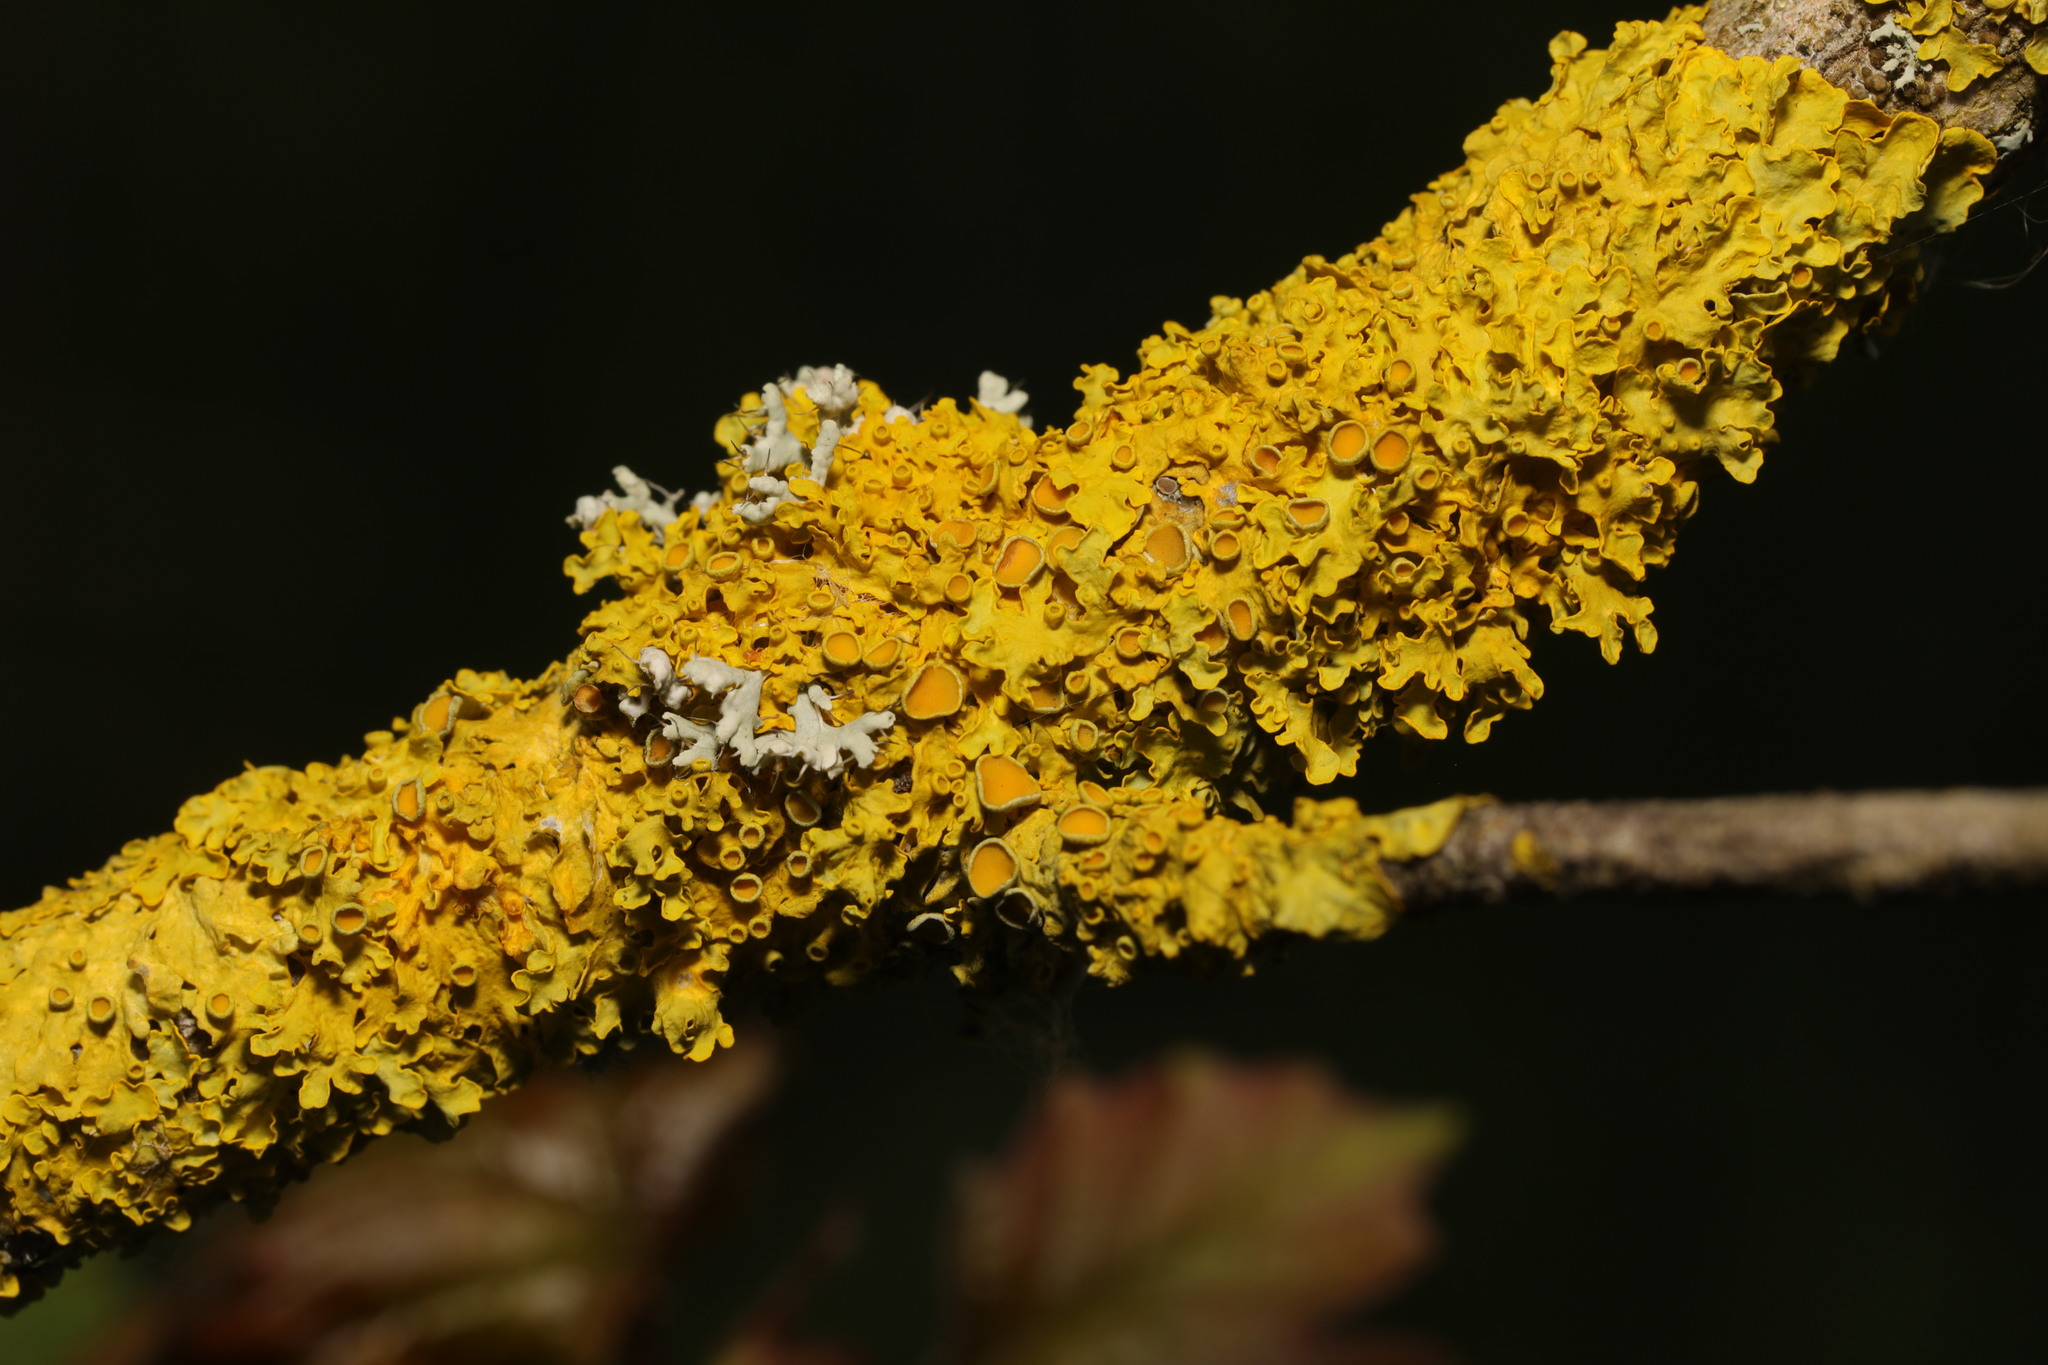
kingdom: Fungi
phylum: Ascomycota
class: Lecanoromycetes
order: Teloschistales
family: Teloschistaceae
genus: Xanthoria
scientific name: Xanthoria parietina
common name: Common orange lichen
